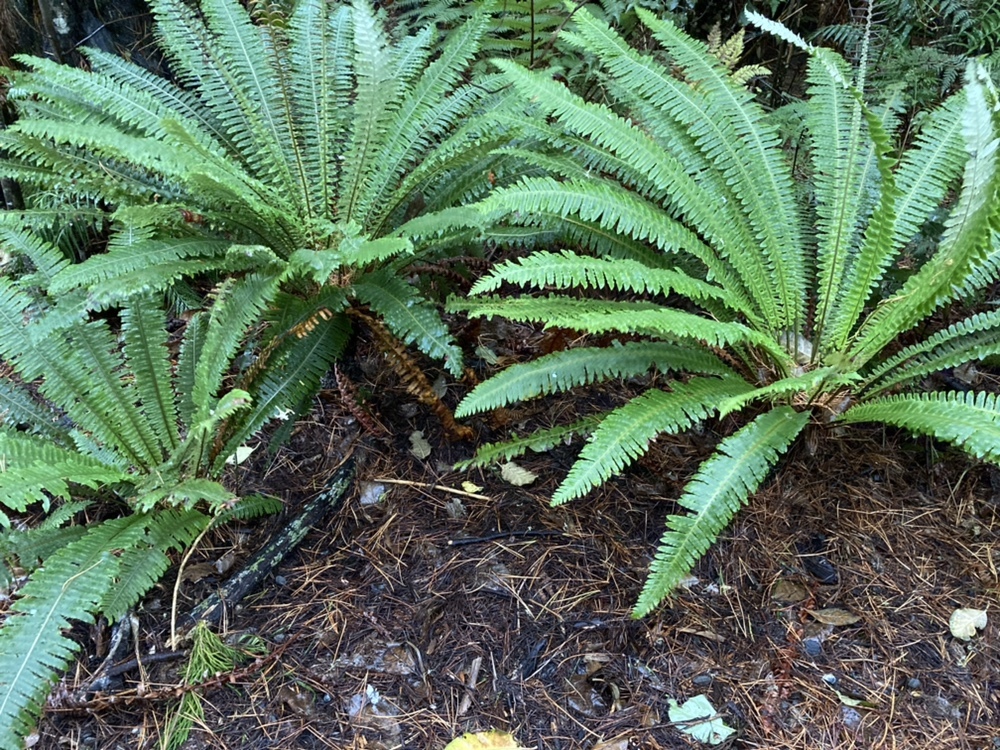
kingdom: Plantae
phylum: Tracheophyta
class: Polypodiopsida
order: Polypodiales
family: Blechnaceae
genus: Lomaria
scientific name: Lomaria discolor
